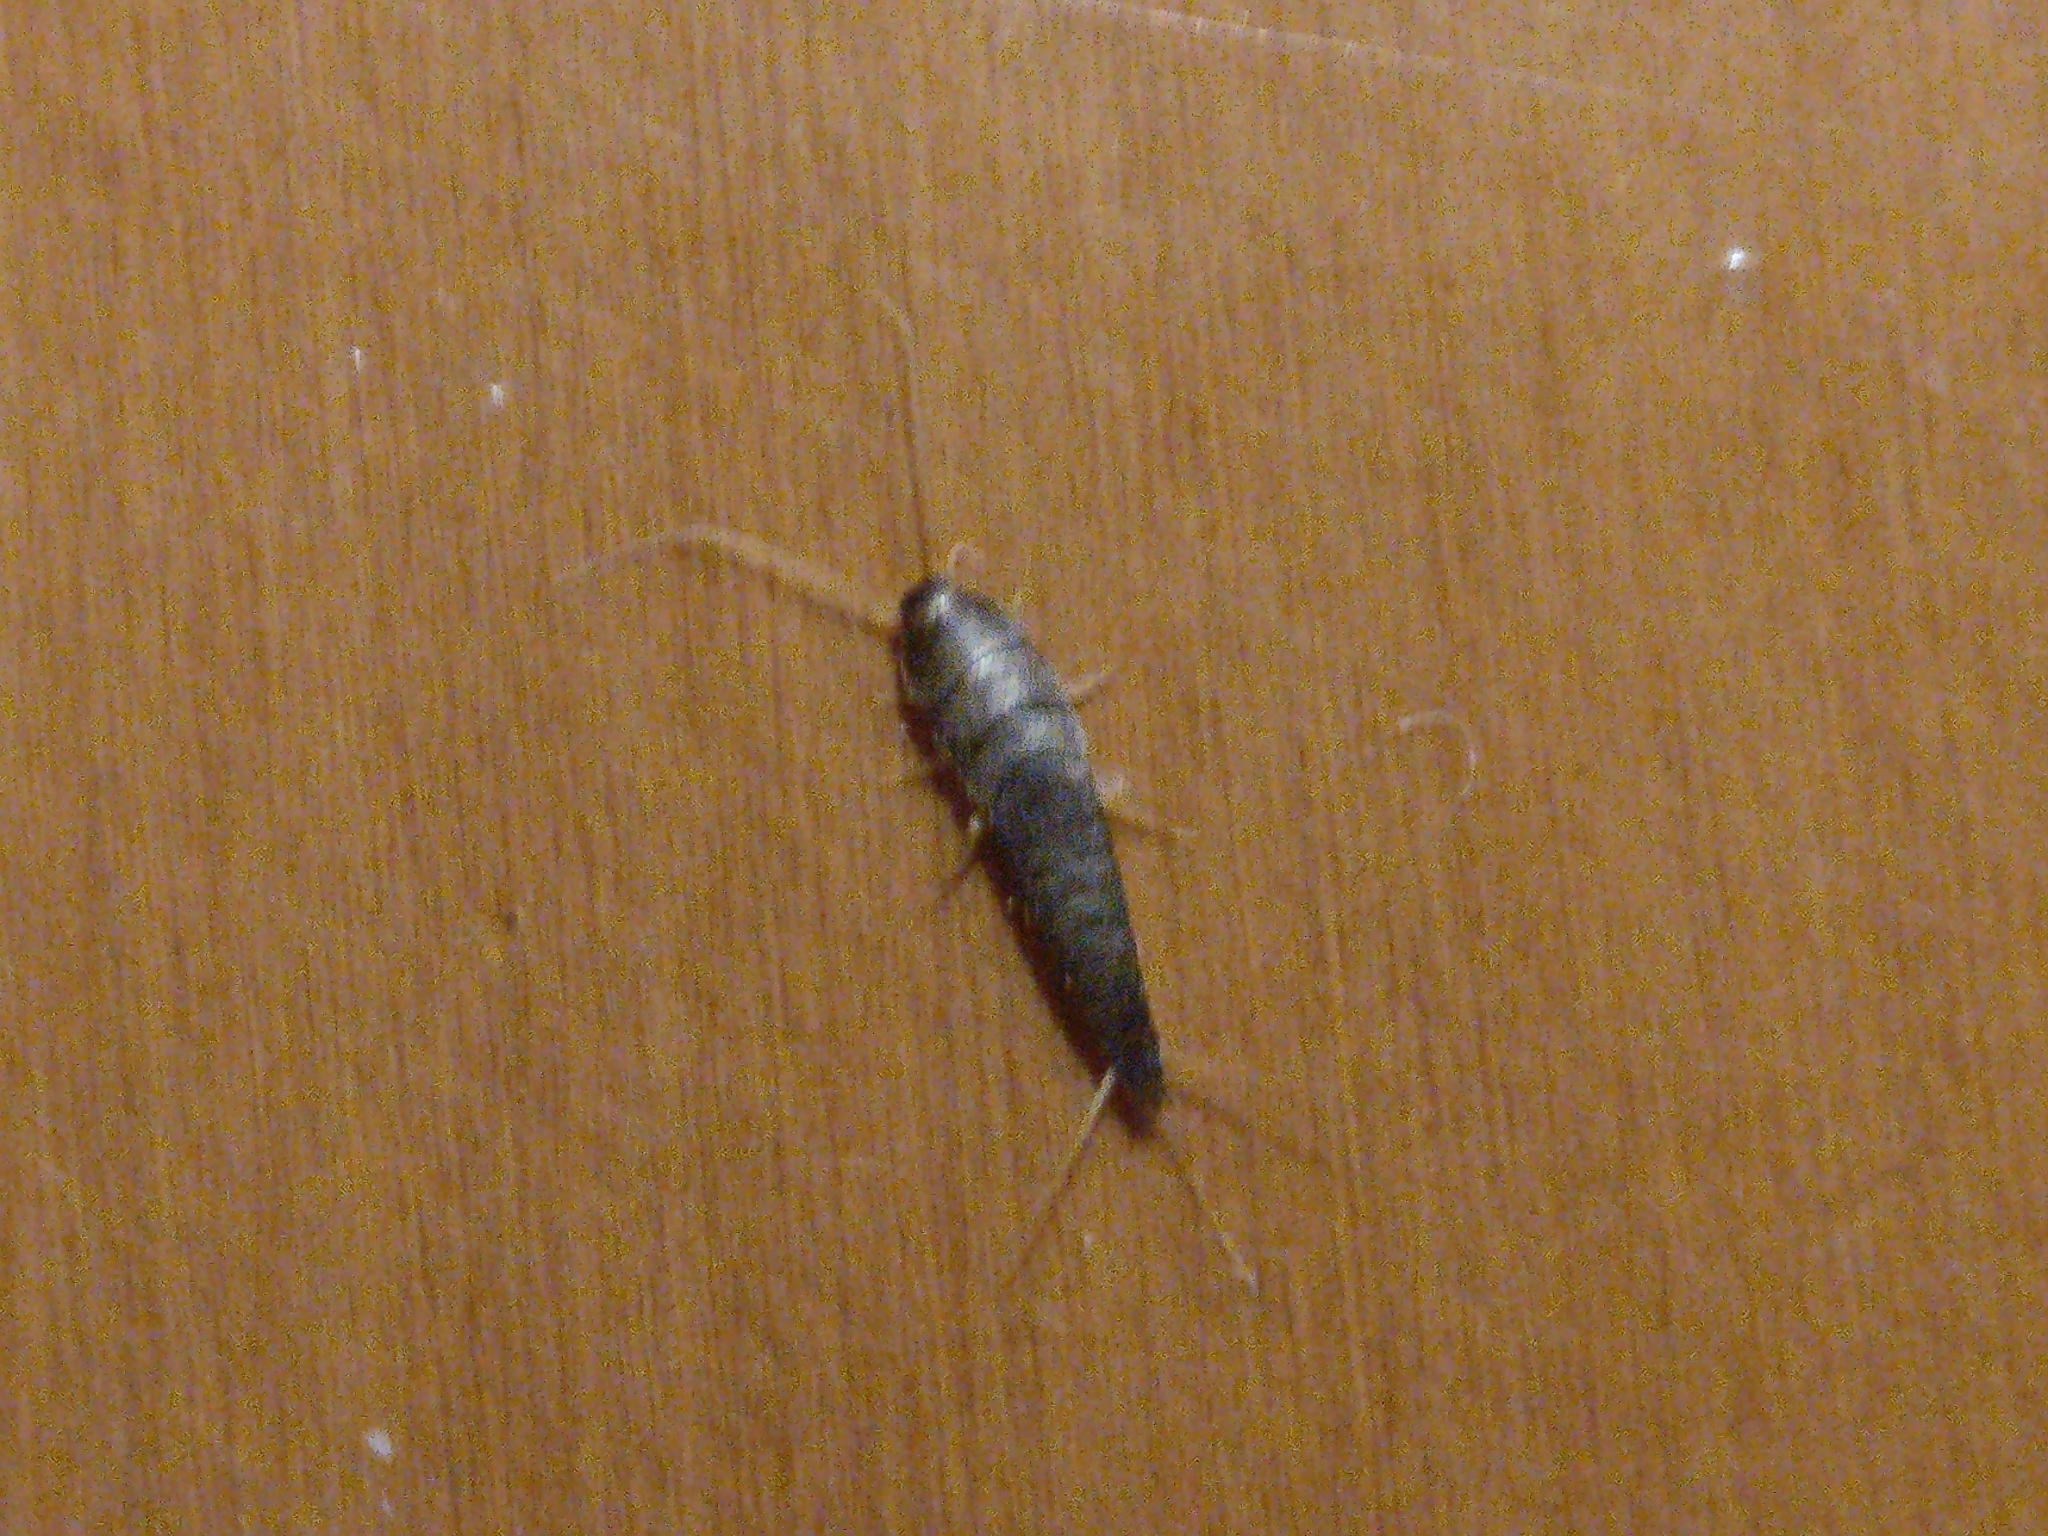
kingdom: Animalia
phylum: Arthropoda
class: Insecta
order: Zygentoma
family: Lepismatidae
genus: Lepisma
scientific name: Lepisma saccharinum
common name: Silverfish
